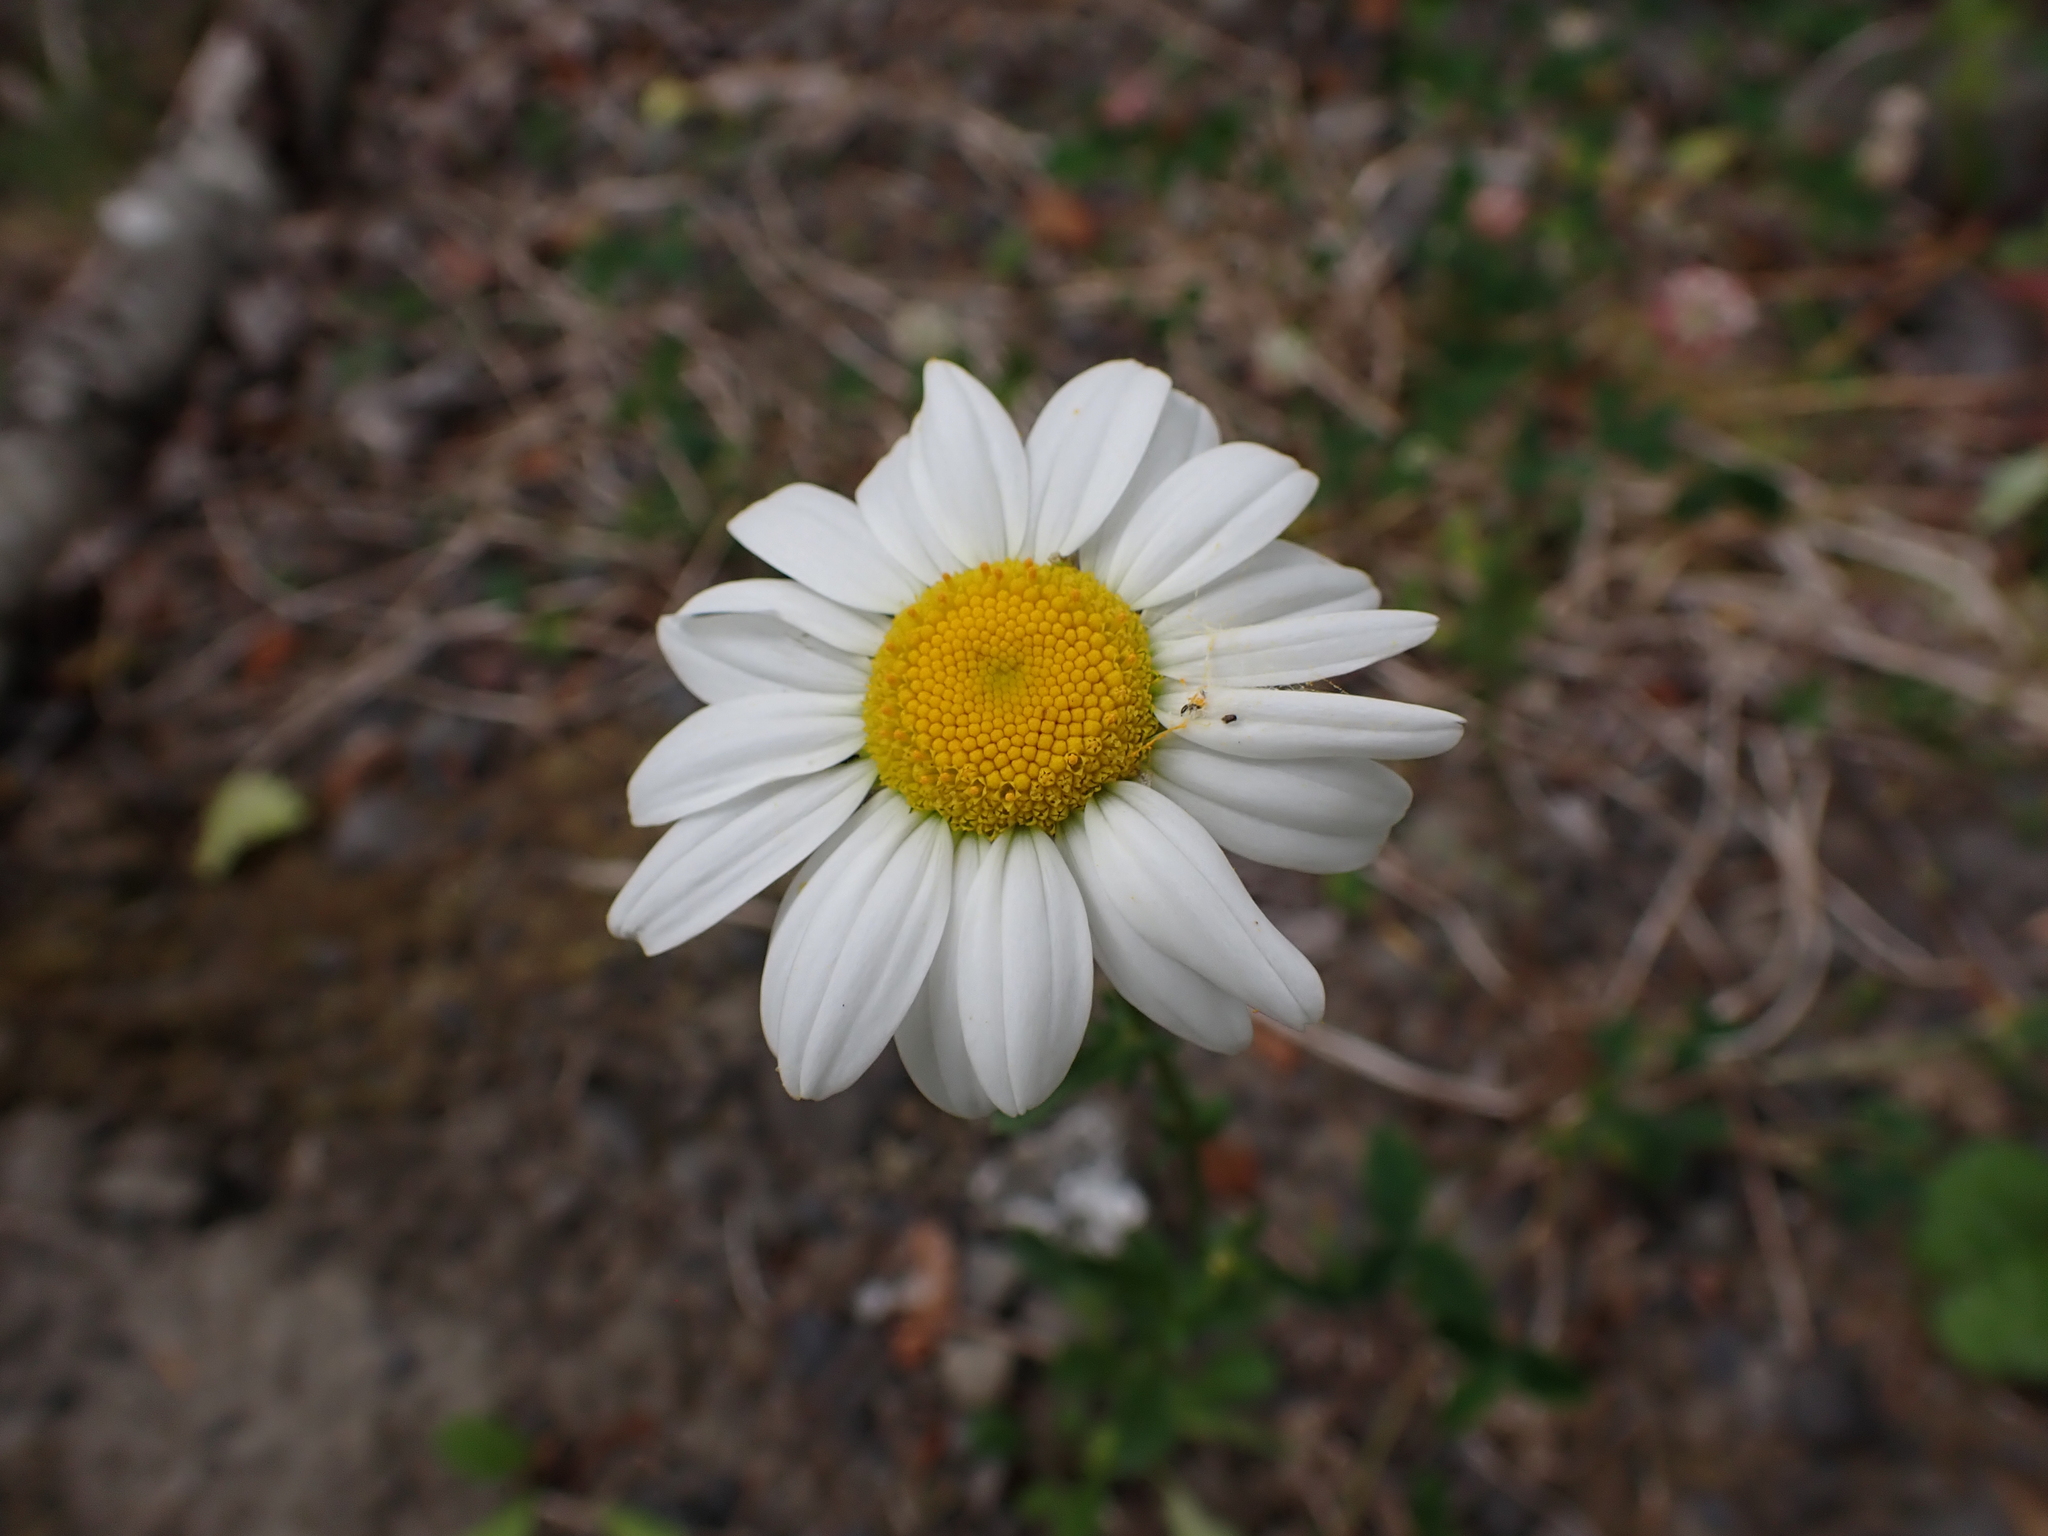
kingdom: Plantae
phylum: Tracheophyta
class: Magnoliopsida
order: Asterales
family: Asteraceae
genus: Leucanthemum
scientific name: Leucanthemum vulgare
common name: Oxeye daisy
